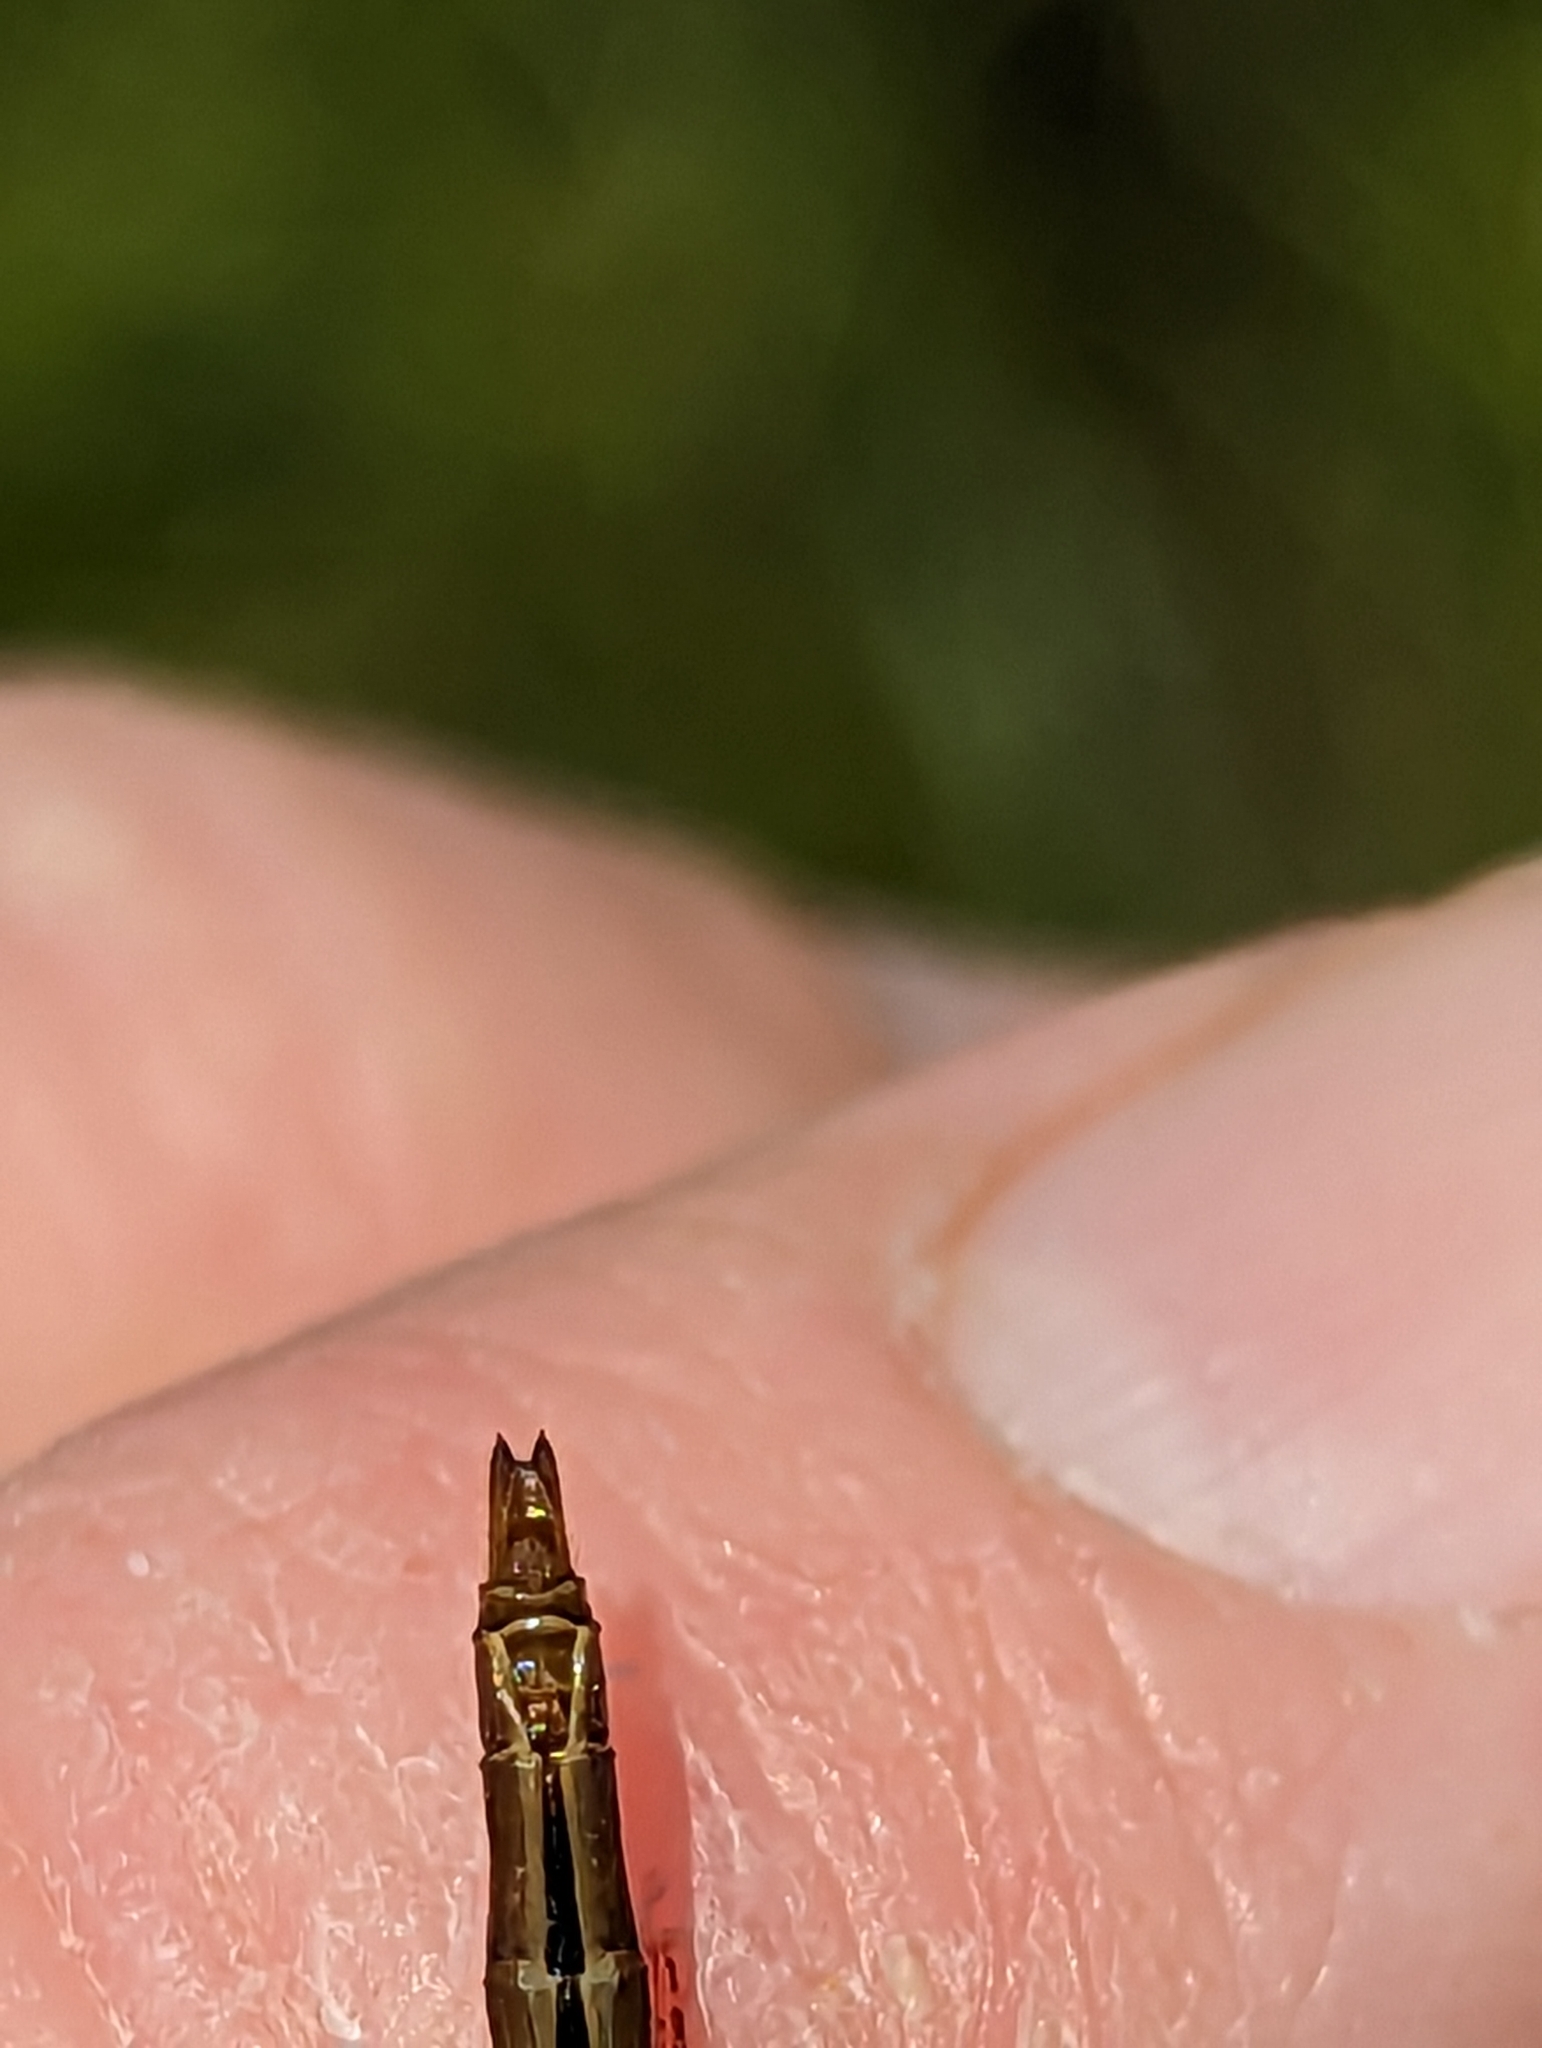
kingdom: Animalia
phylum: Arthropoda
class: Insecta
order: Odonata
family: Libellulidae
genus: Sympetrum
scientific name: Sympetrum vicinum
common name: Autumn meadowhawk
